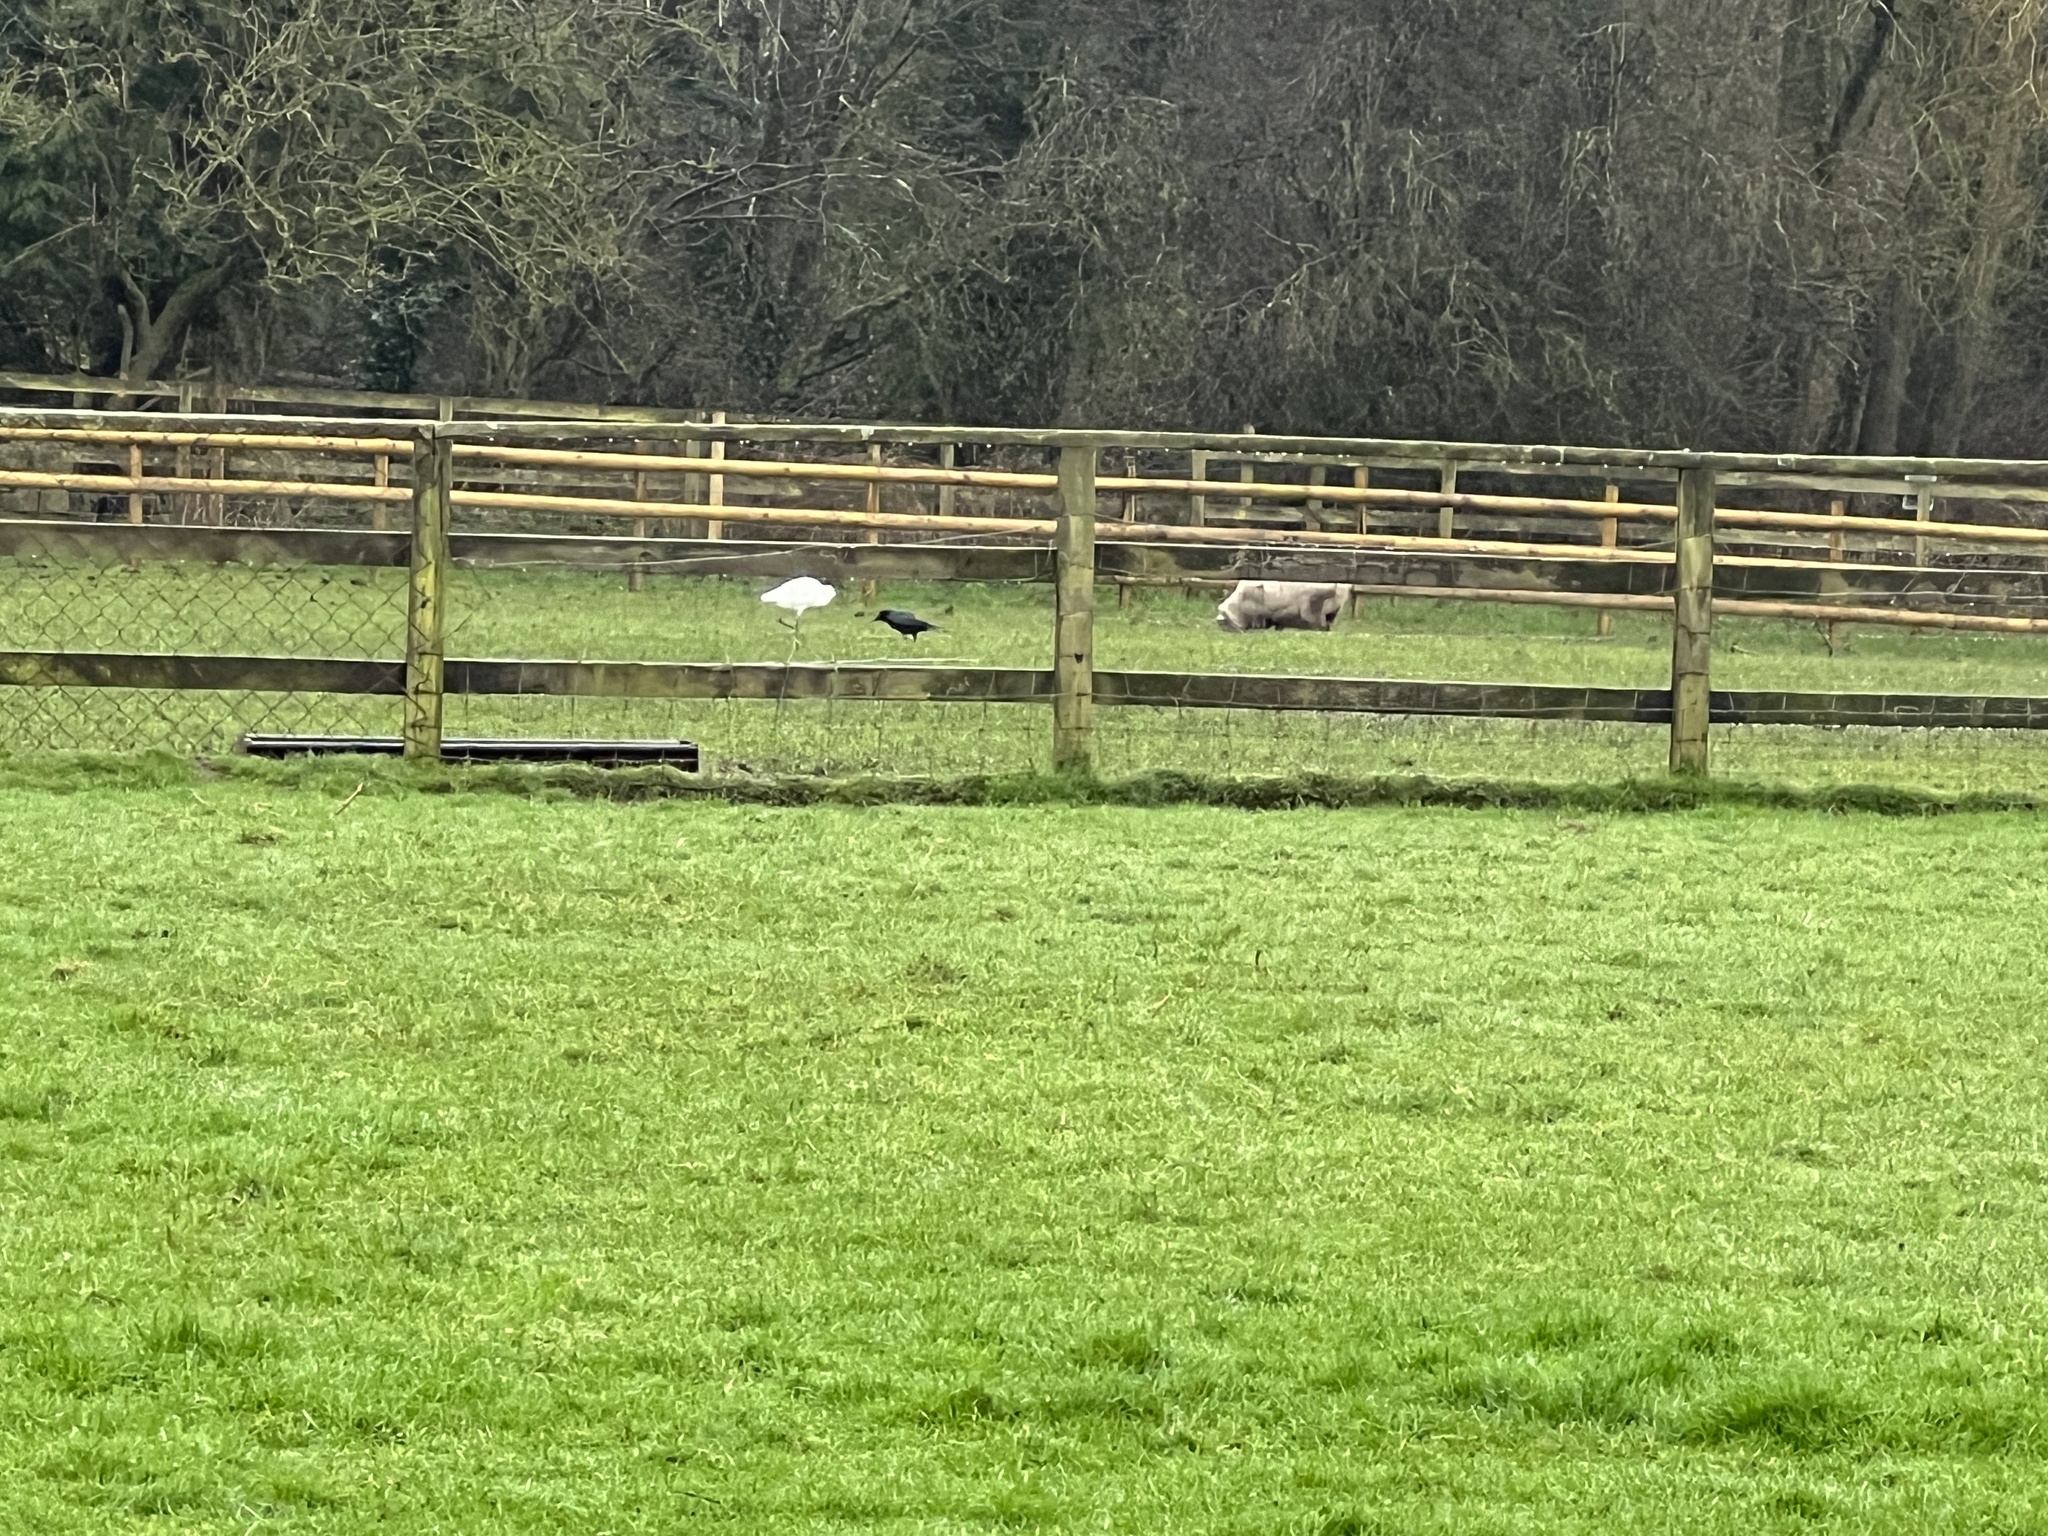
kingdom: Animalia
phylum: Chordata
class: Aves
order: Pelecaniformes
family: Ardeidae
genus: Egretta
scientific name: Egretta garzetta
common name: Little egret
